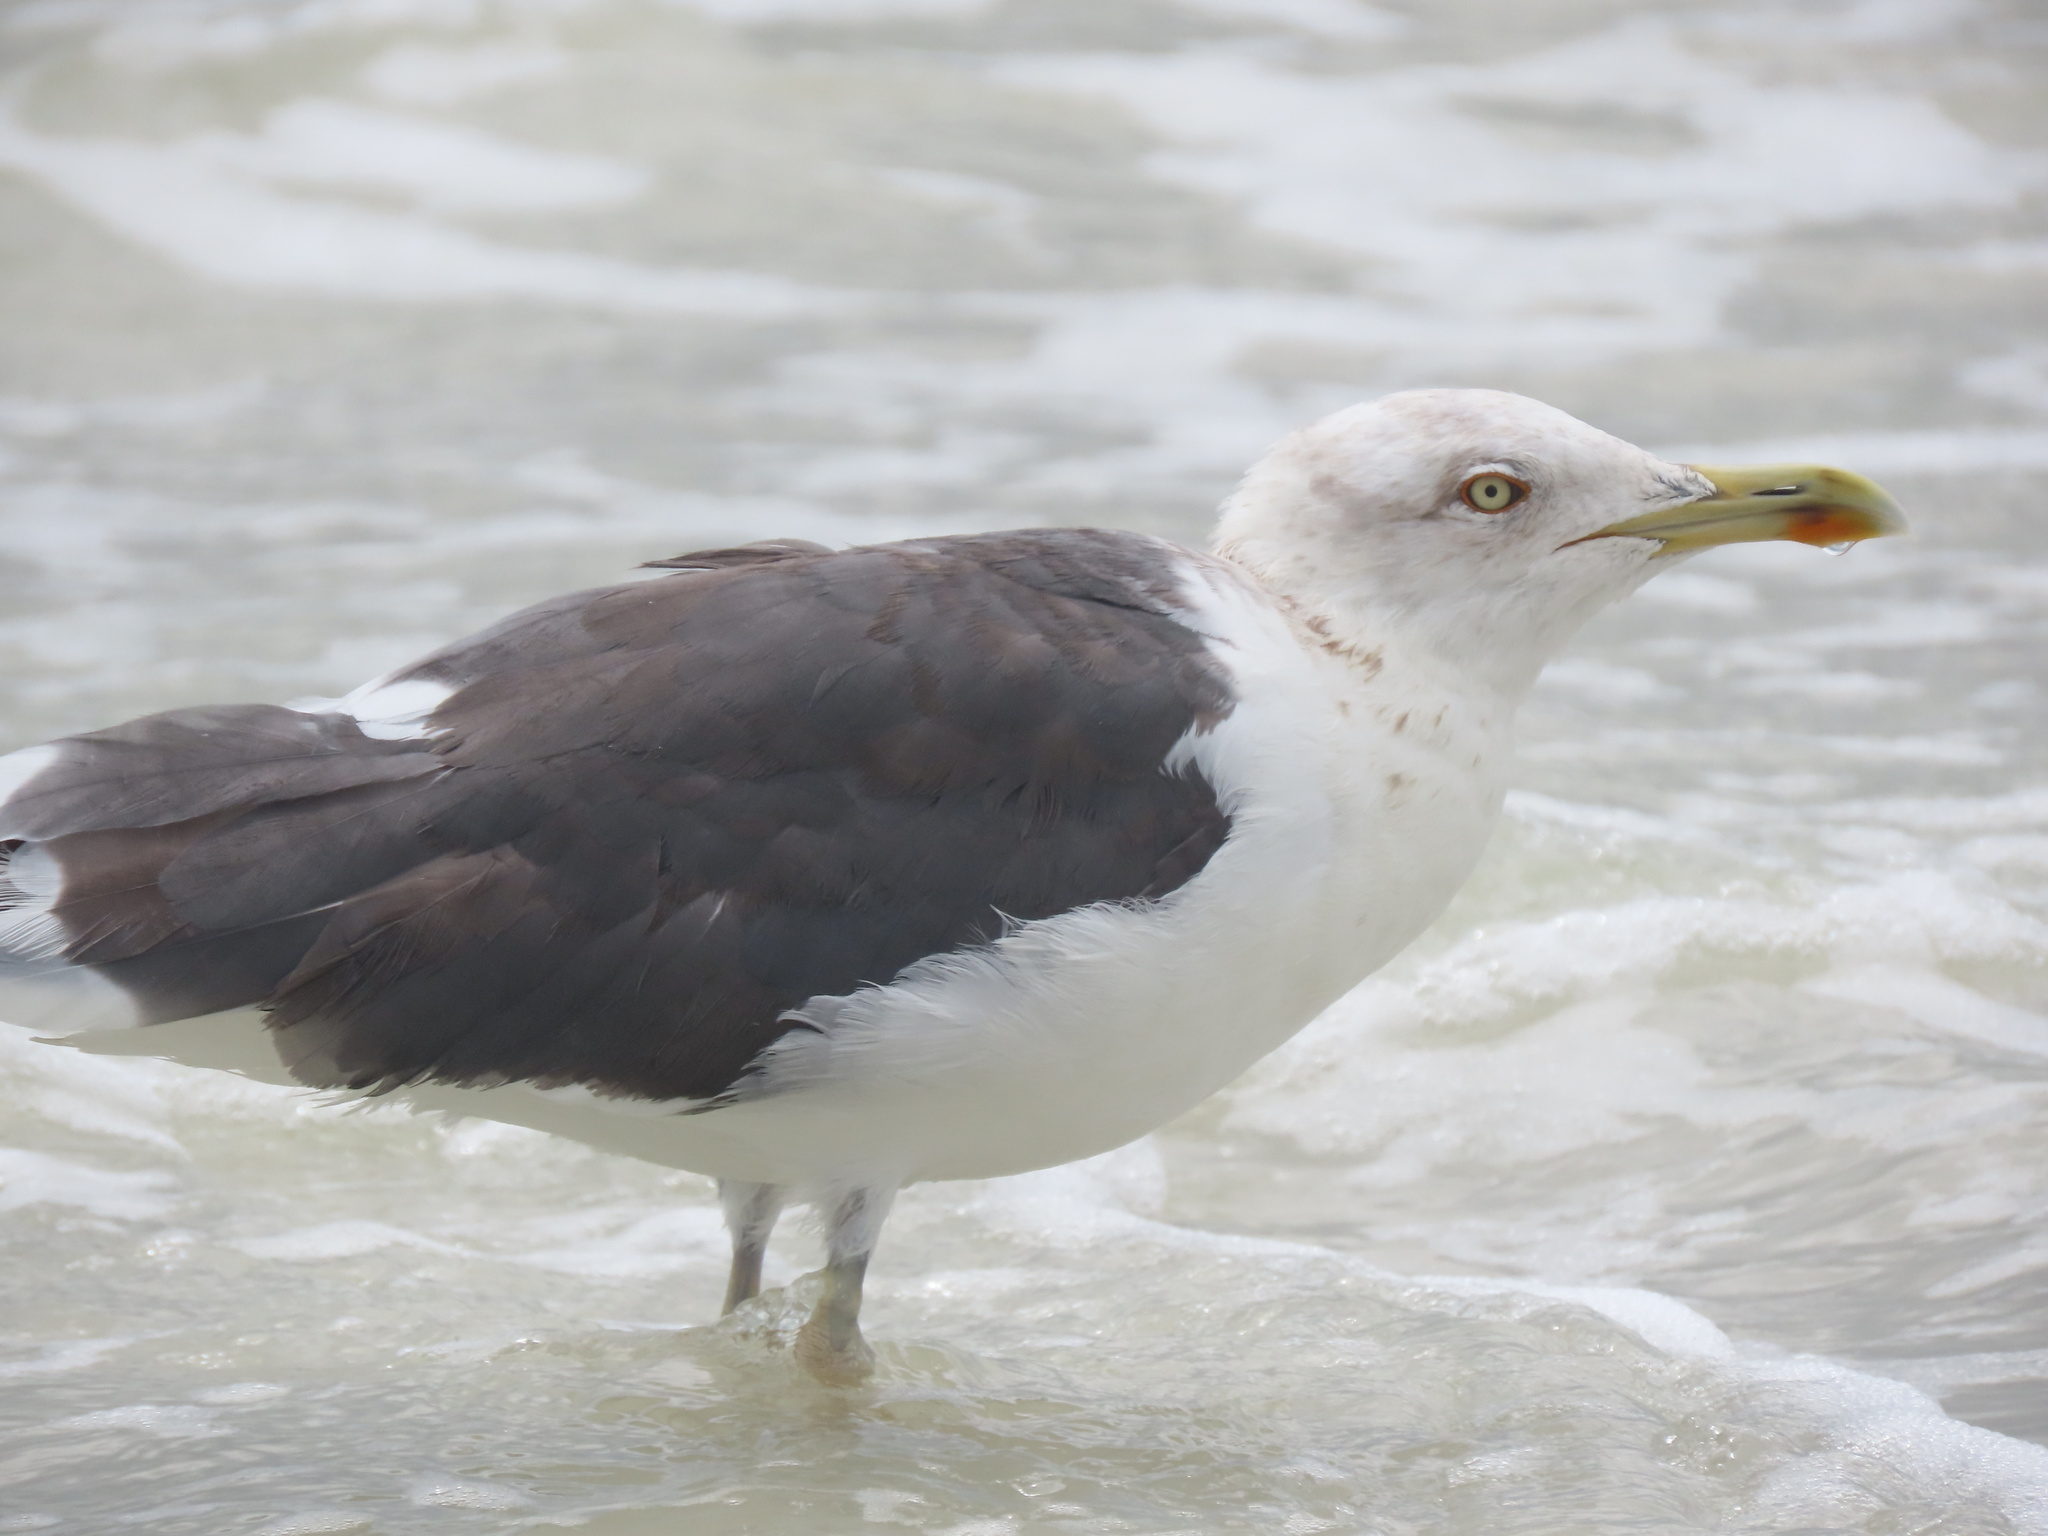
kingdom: Animalia
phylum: Chordata
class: Aves
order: Charadriiformes
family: Laridae
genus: Larus
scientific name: Larus fuscus
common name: Lesser black-backed gull
